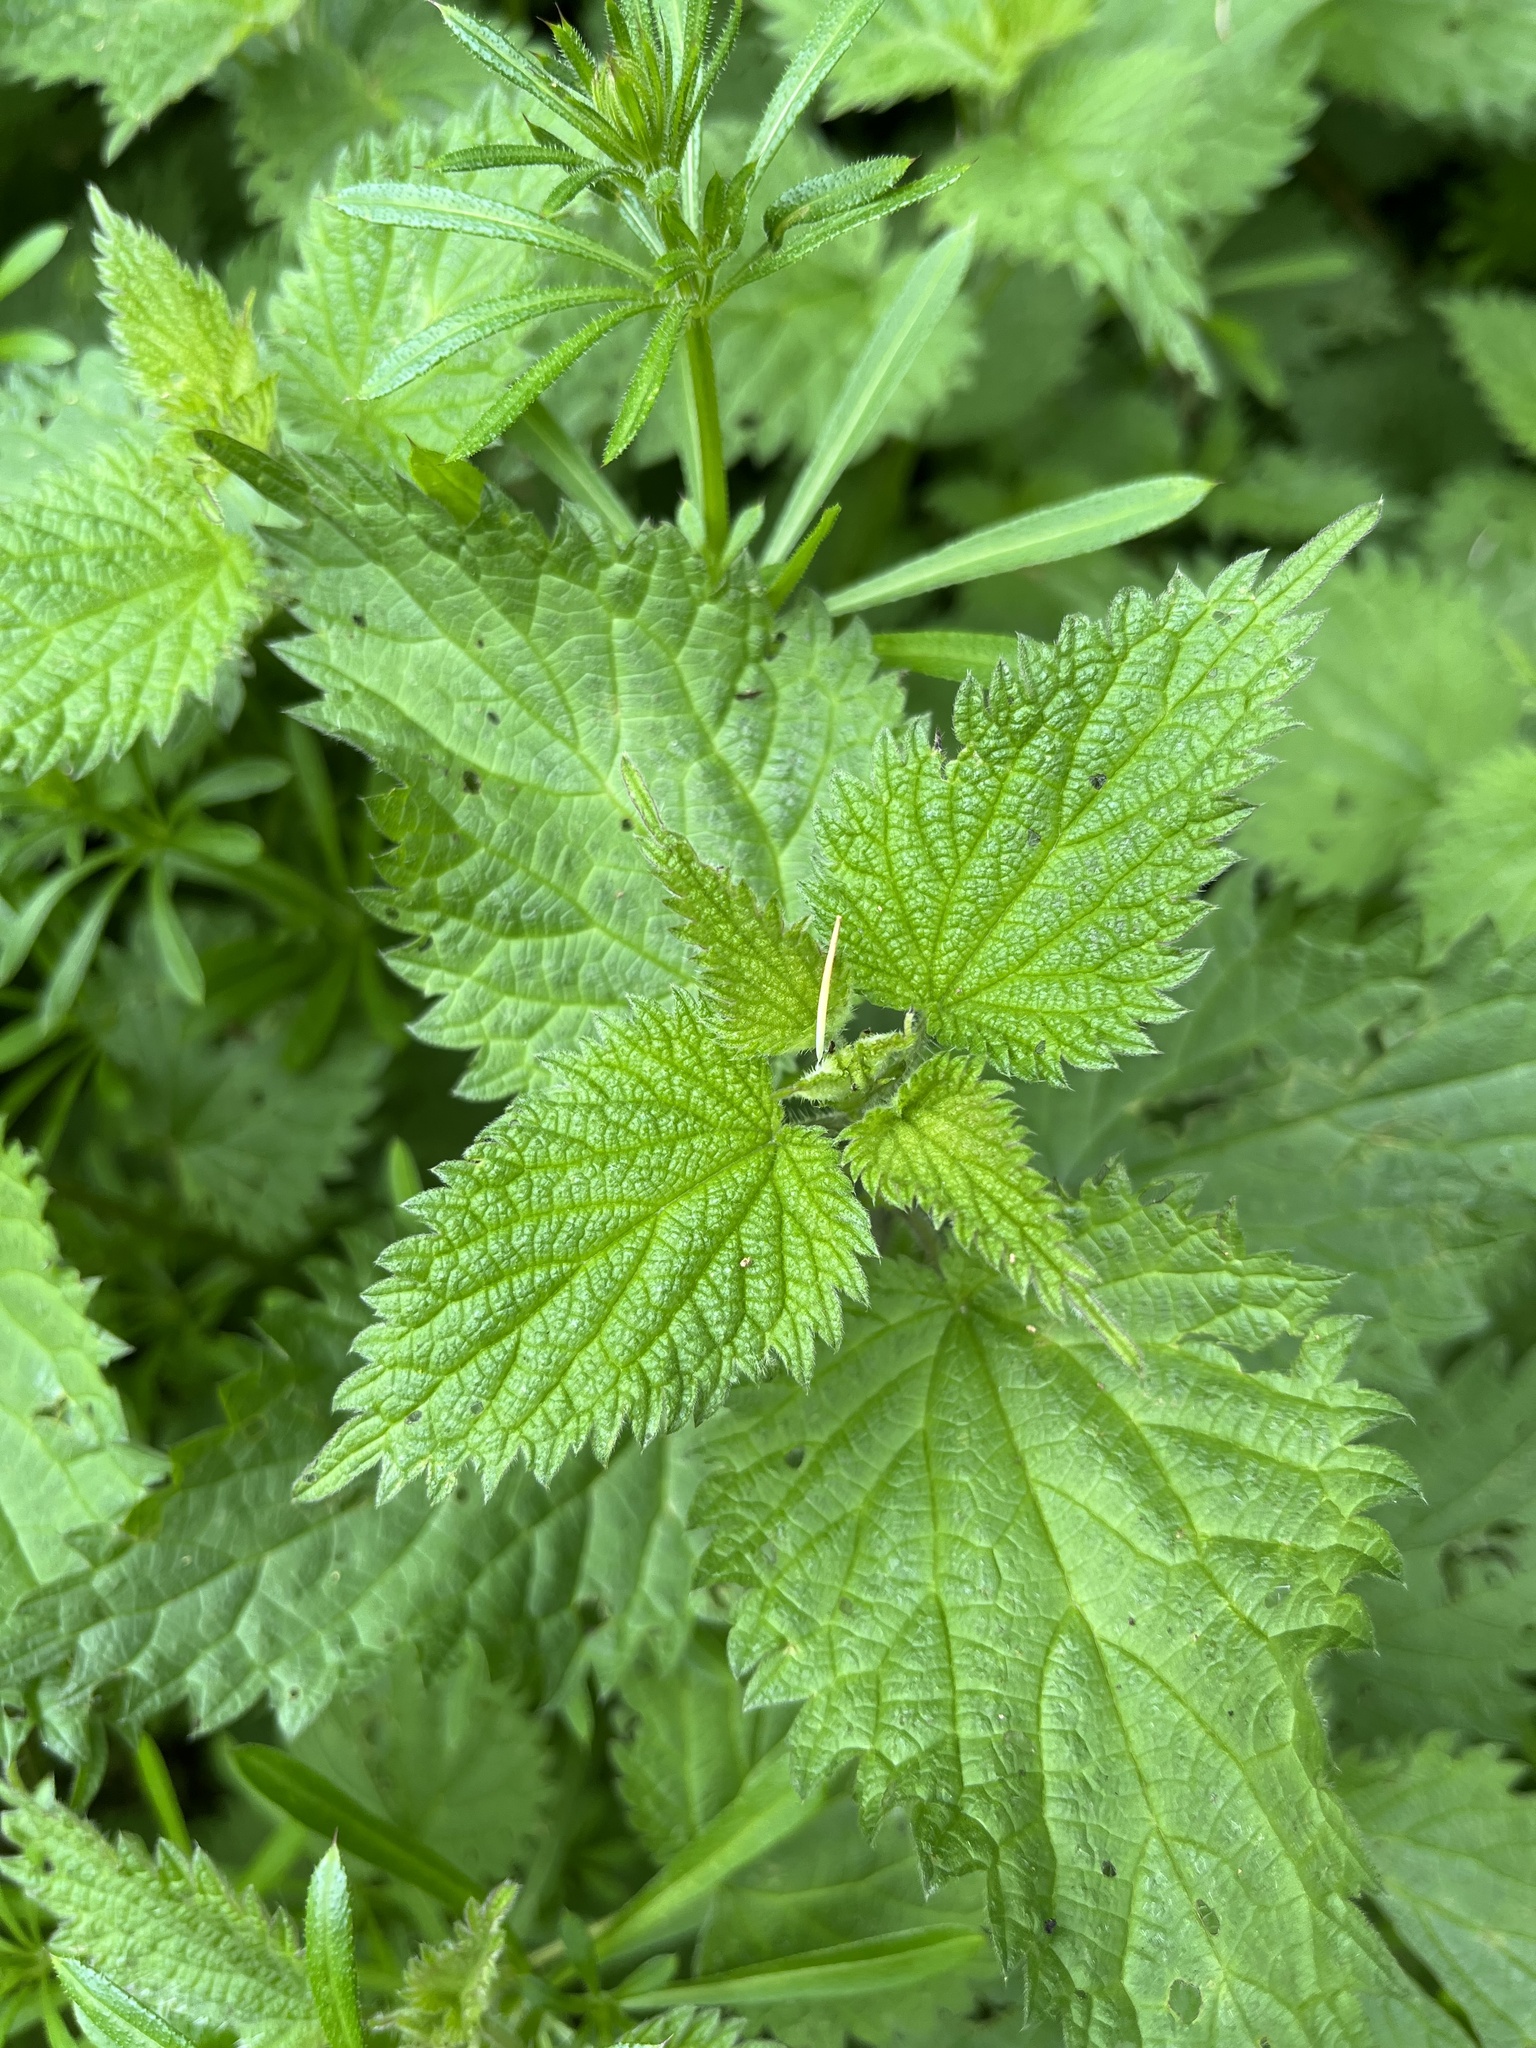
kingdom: Plantae
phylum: Tracheophyta
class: Magnoliopsida
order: Rosales
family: Urticaceae
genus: Urtica
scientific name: Urtica dioica
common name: Common nettle
